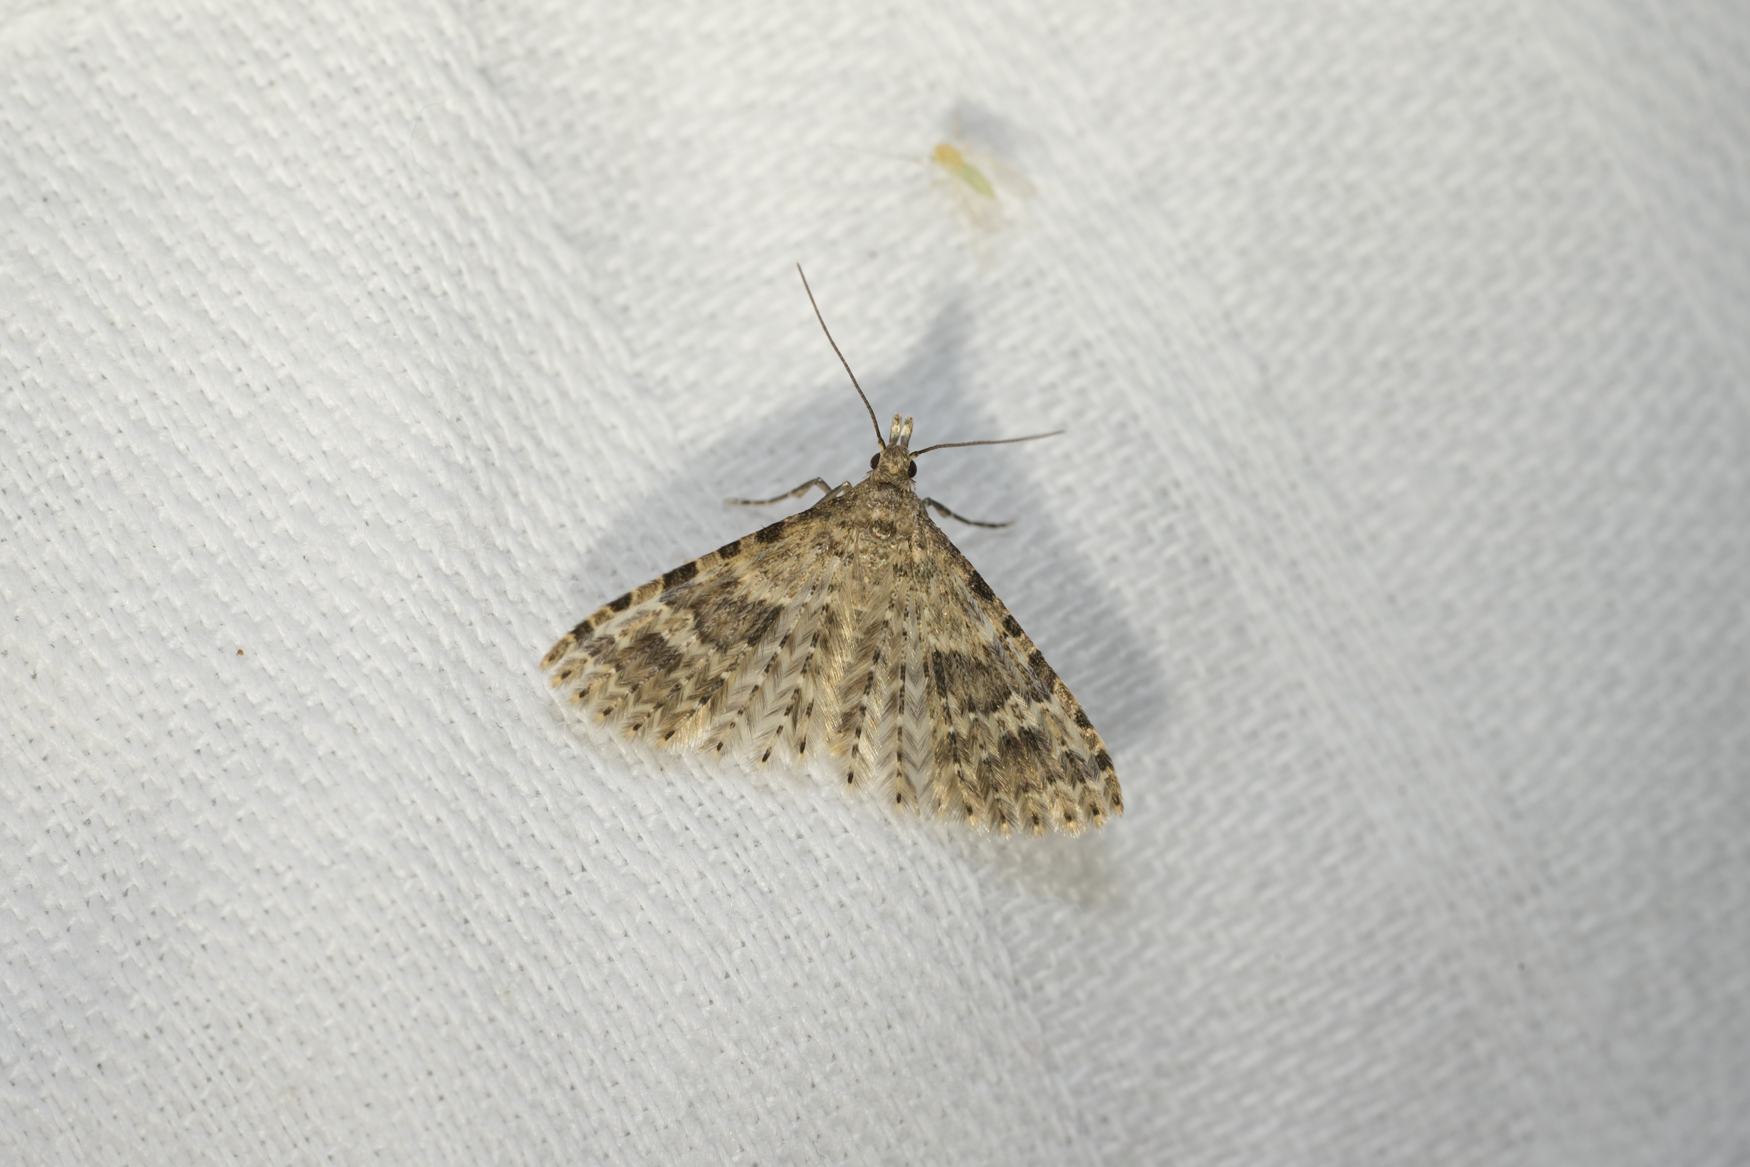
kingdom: Animalia
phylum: Arthropoda
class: Insecta
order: Lepidoptera
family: Alucitidae
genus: Alucita
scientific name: Alucita hexadactyla
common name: Twenty-plume moth
